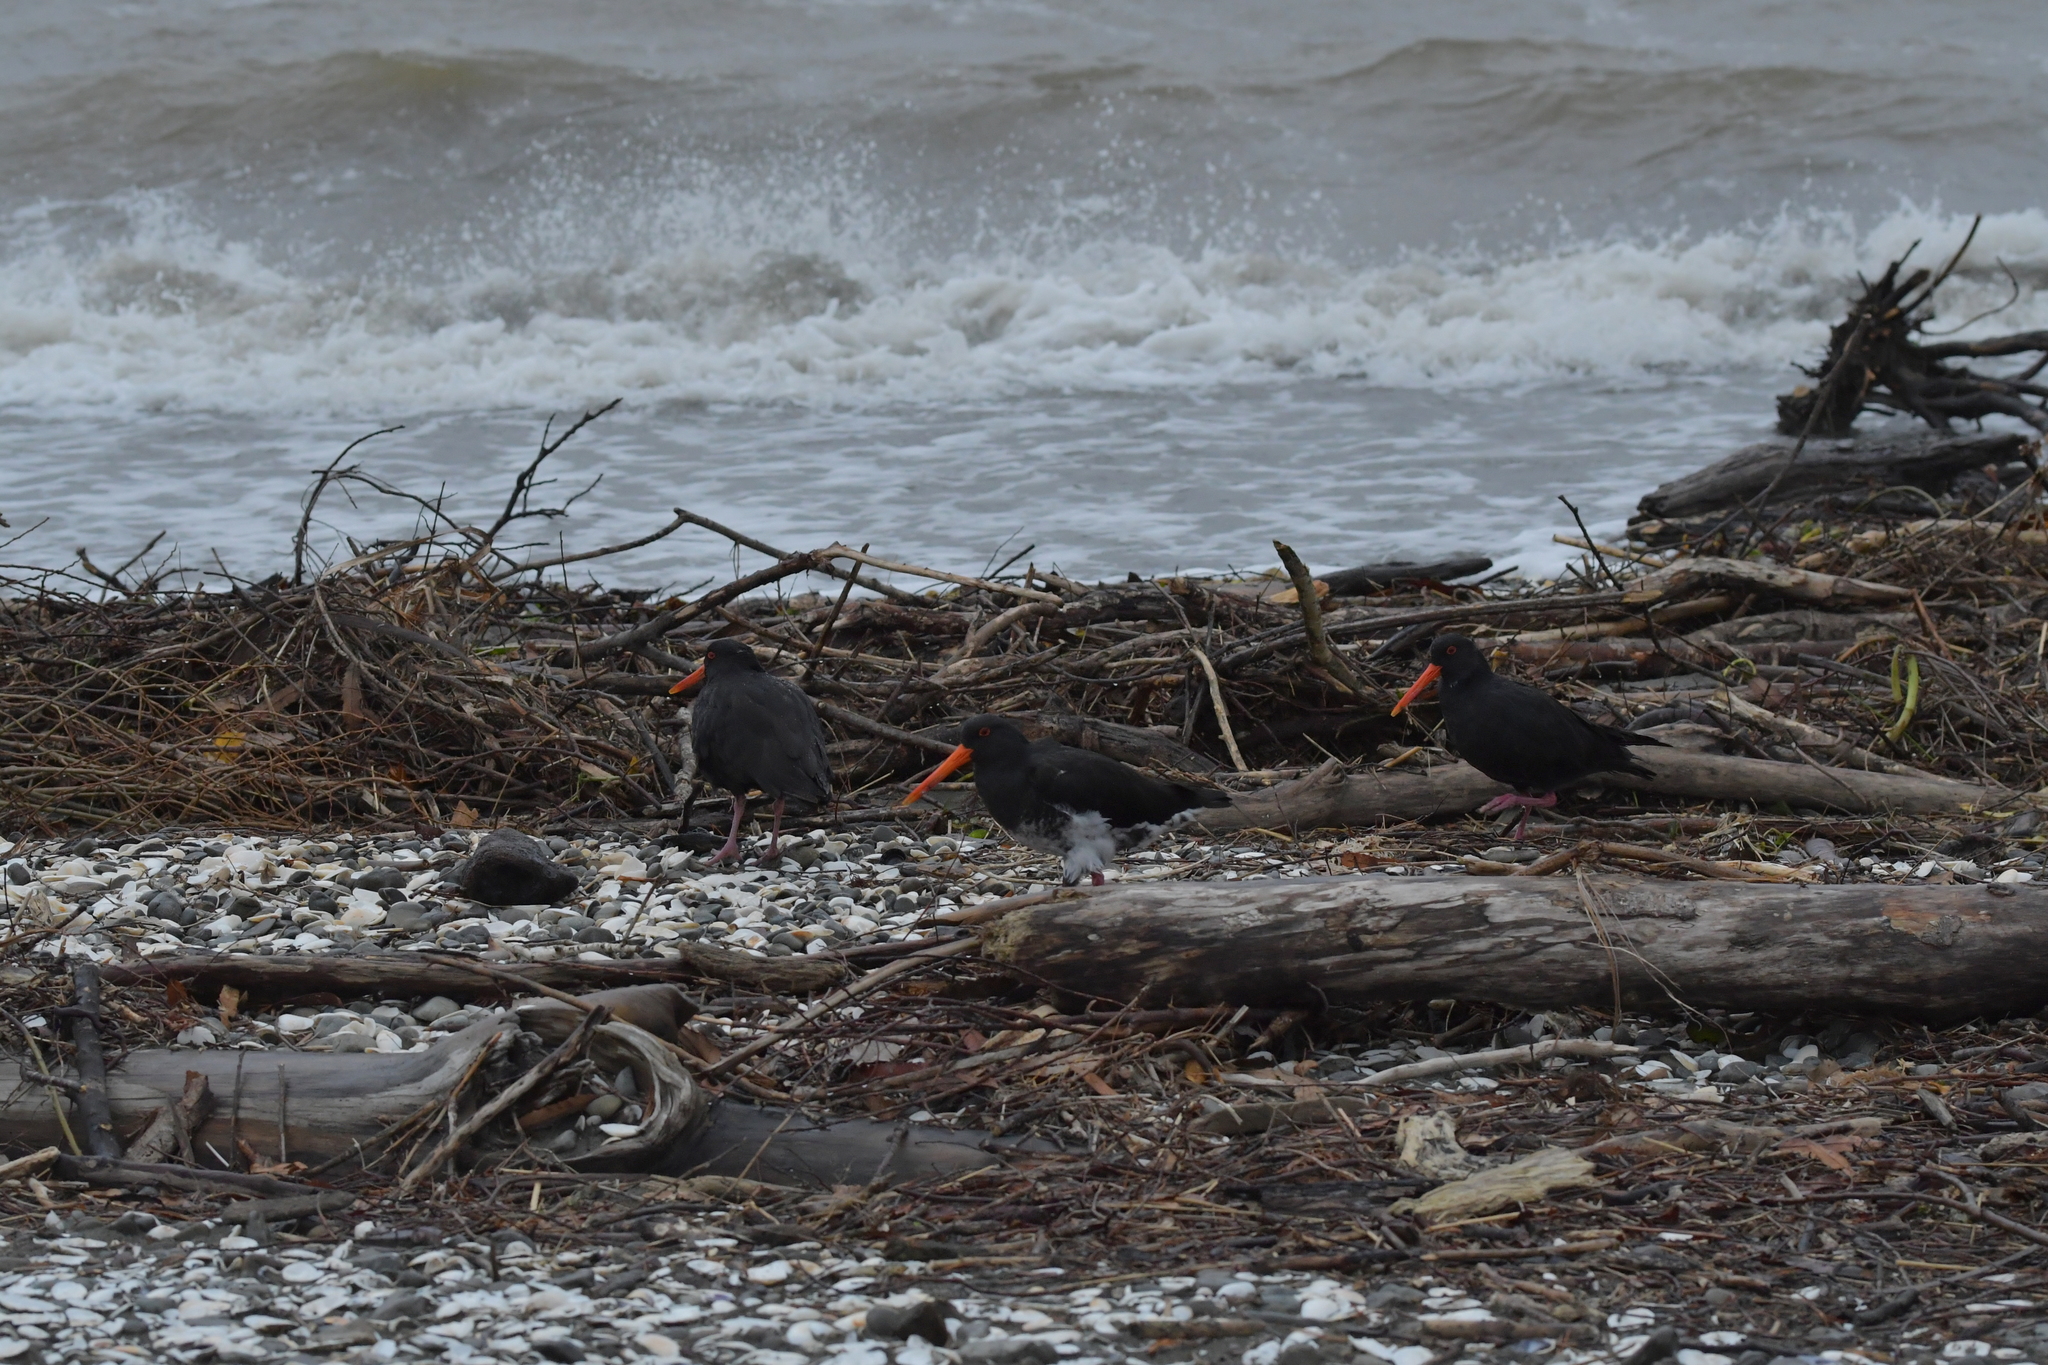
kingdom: Animalia
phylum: Chordata
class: Aves
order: Charadriiformes
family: Haematopodidae
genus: Haematopus
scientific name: Haematopus unicolor
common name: Variable oystercatcher
